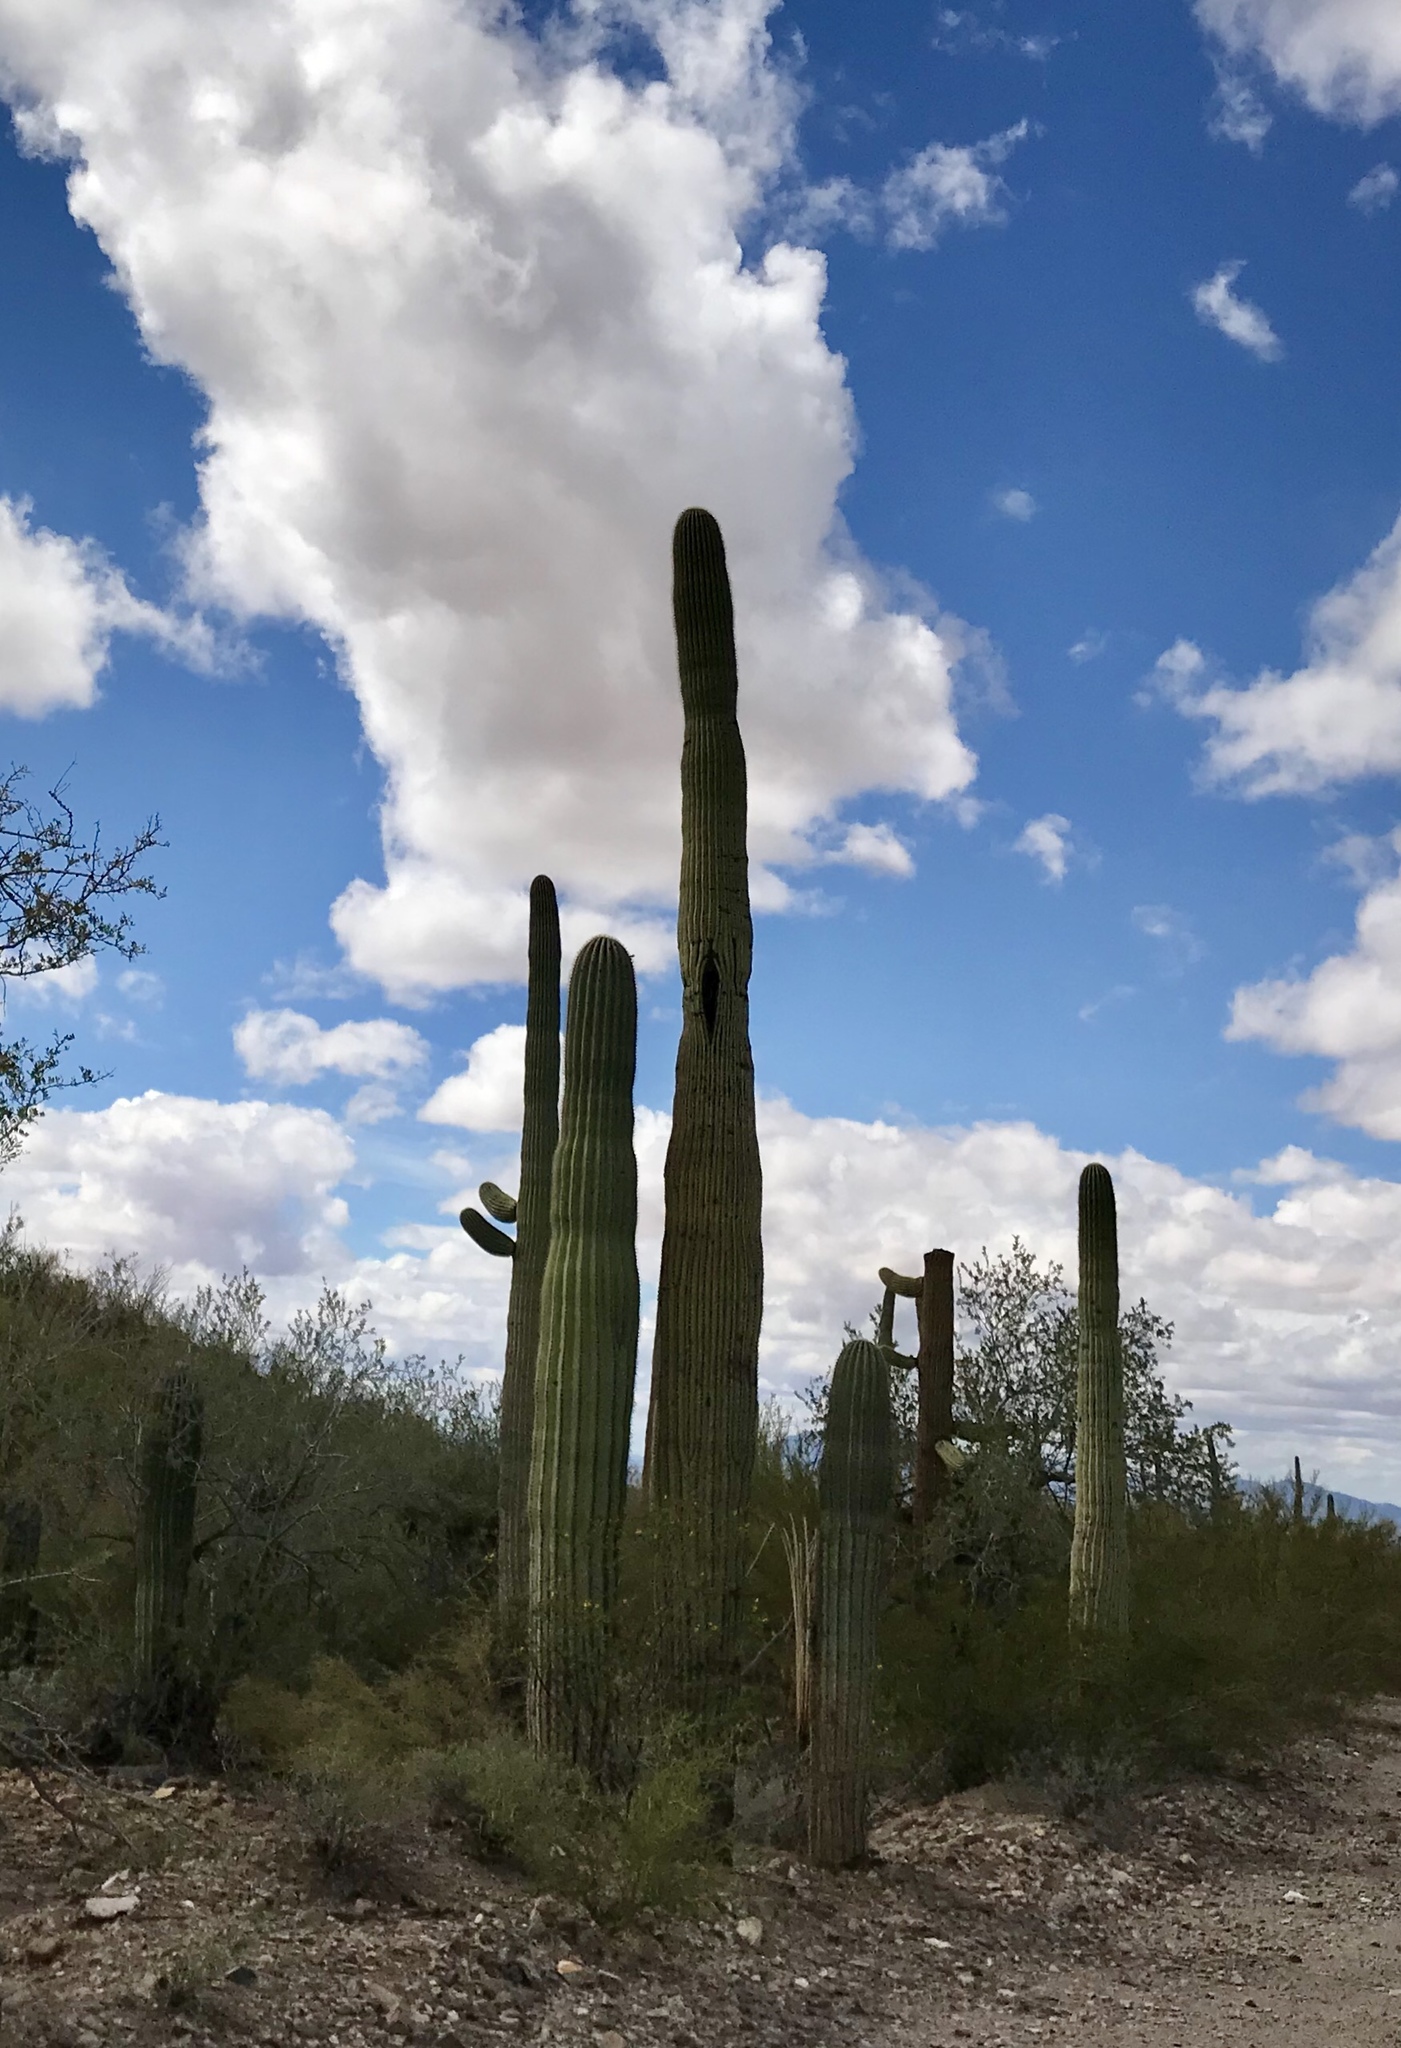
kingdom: Plantae
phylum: Tracheophyta
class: Magnoliopsida
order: Caryophyllales
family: Cactaceae
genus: Carnegiea
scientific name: Carnegiea gigantea
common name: Saguaro
